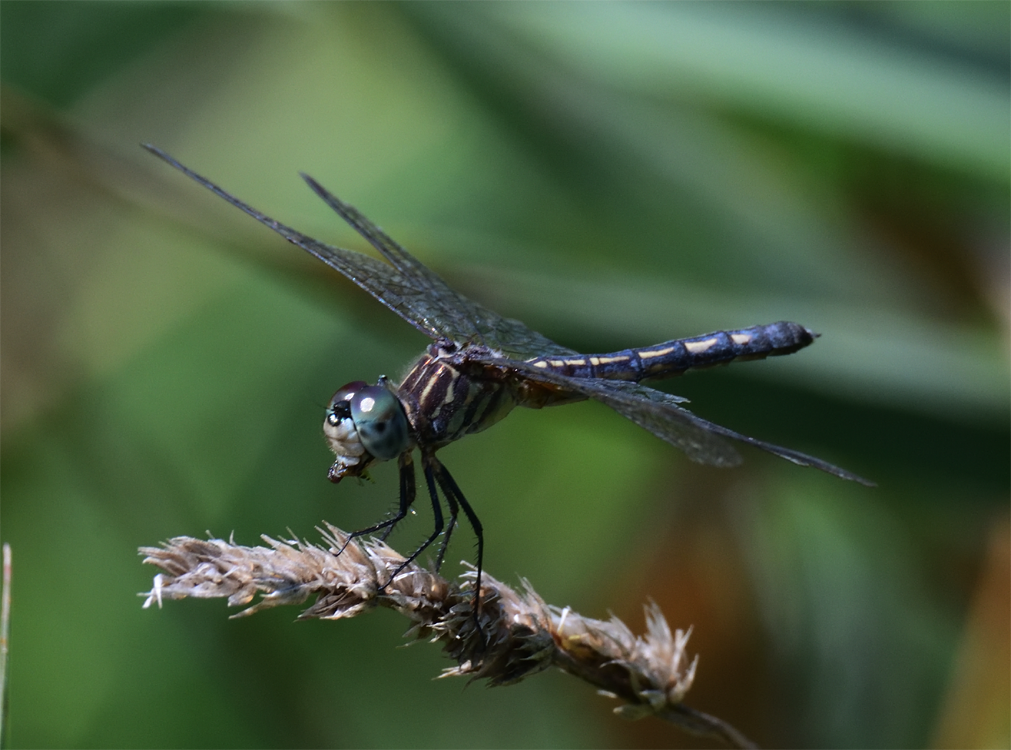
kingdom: Animalia
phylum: Arthropoda
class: Insecta
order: Odonata
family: Libellulidae
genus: Pachydiplax
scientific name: Pachydiplax longipennis
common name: Blue dasher
